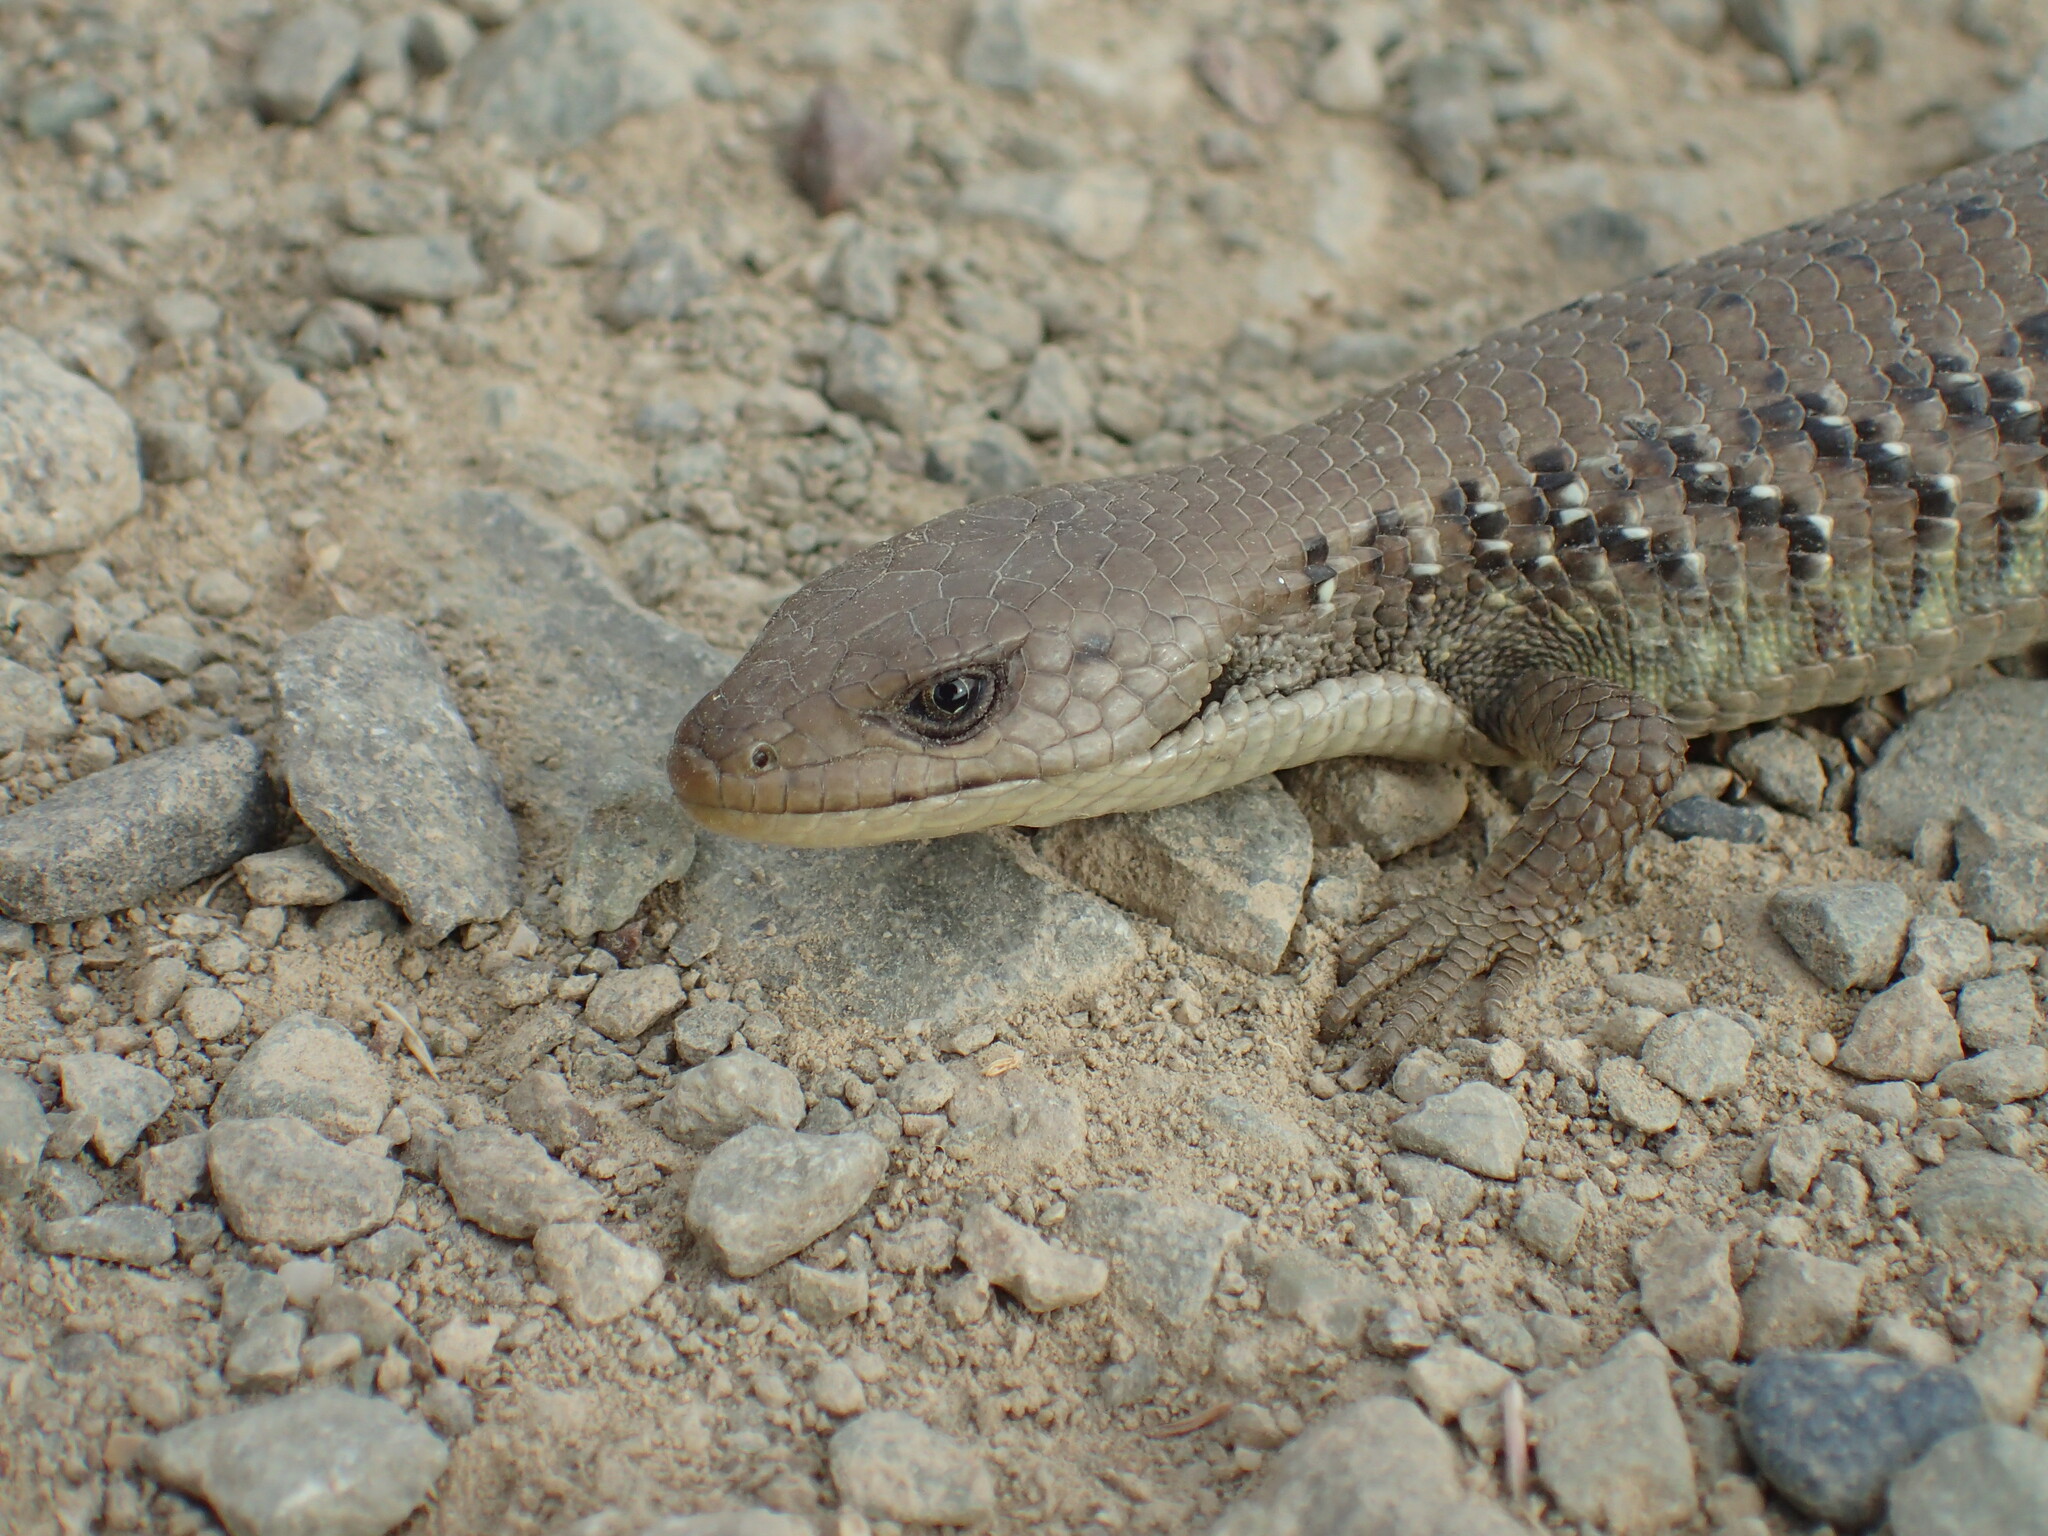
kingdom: Animalia
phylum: Chordata
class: Squamata
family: Anguidae
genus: Elgaria
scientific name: Elgaria coerulea
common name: Northern alligator lizard
